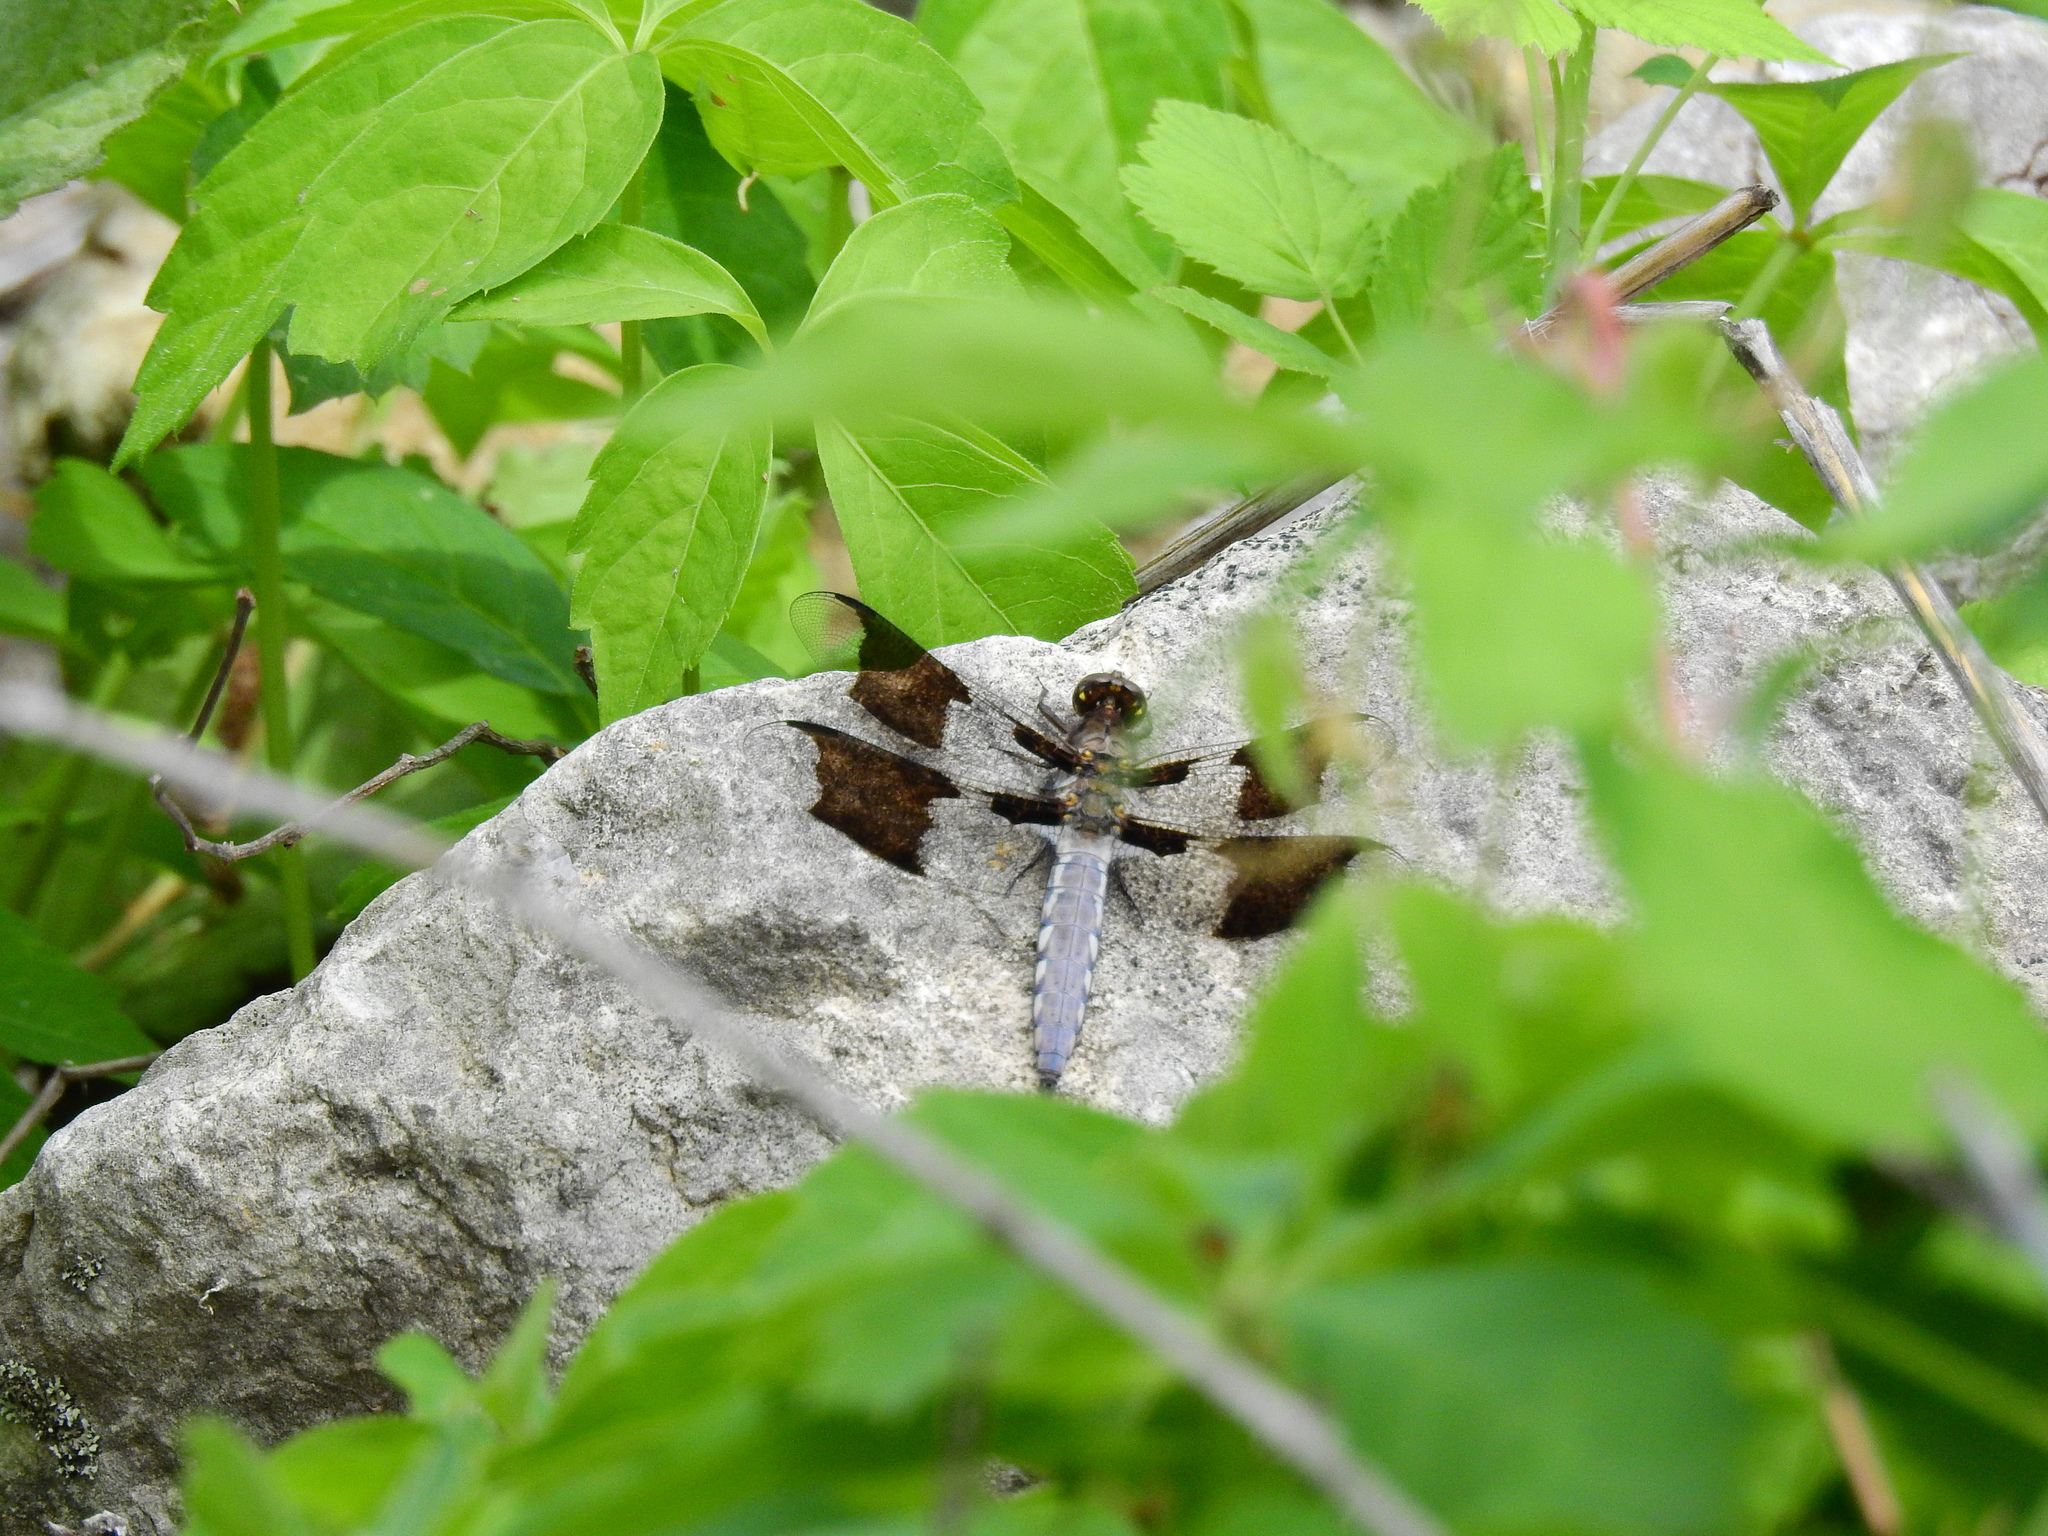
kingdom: Animalia
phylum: Arthropoda
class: Insecta
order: Odonata
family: Libellulidae
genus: Plathemis
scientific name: Plathemis lydia
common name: Common whitetail
